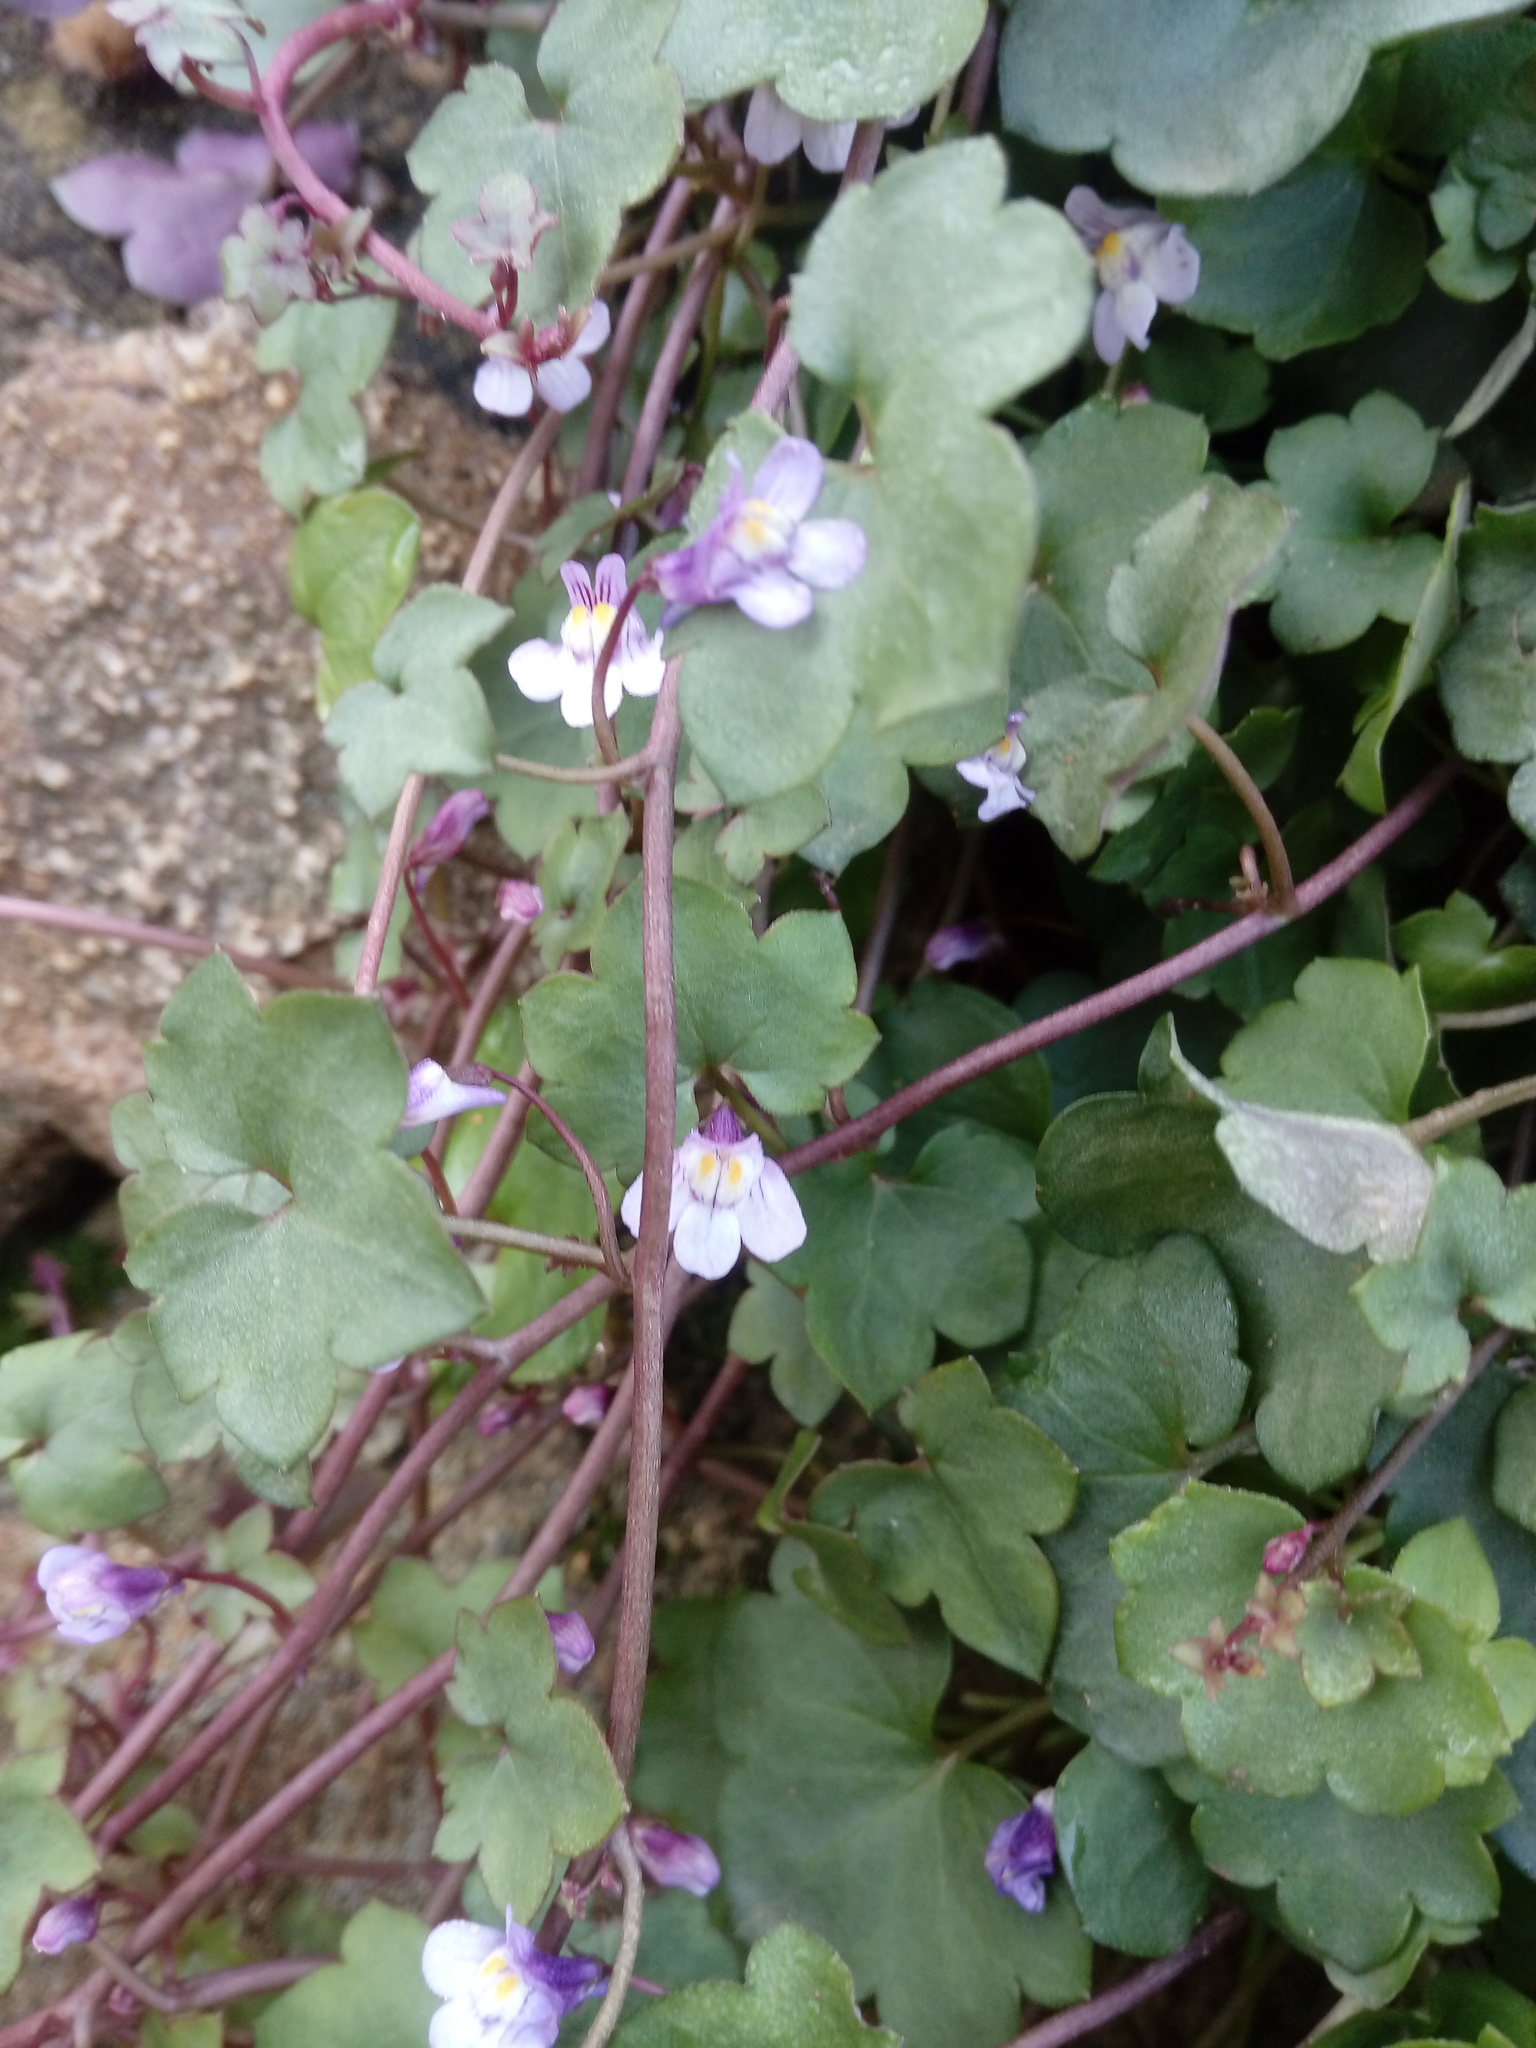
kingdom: Plantae
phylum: Tracheophyta
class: Magnoliopsida
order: Lamiales
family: Plantaginaceae
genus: Cymbalaria
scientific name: Cymbalaria muralis
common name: Ivy-leaved toadflax
